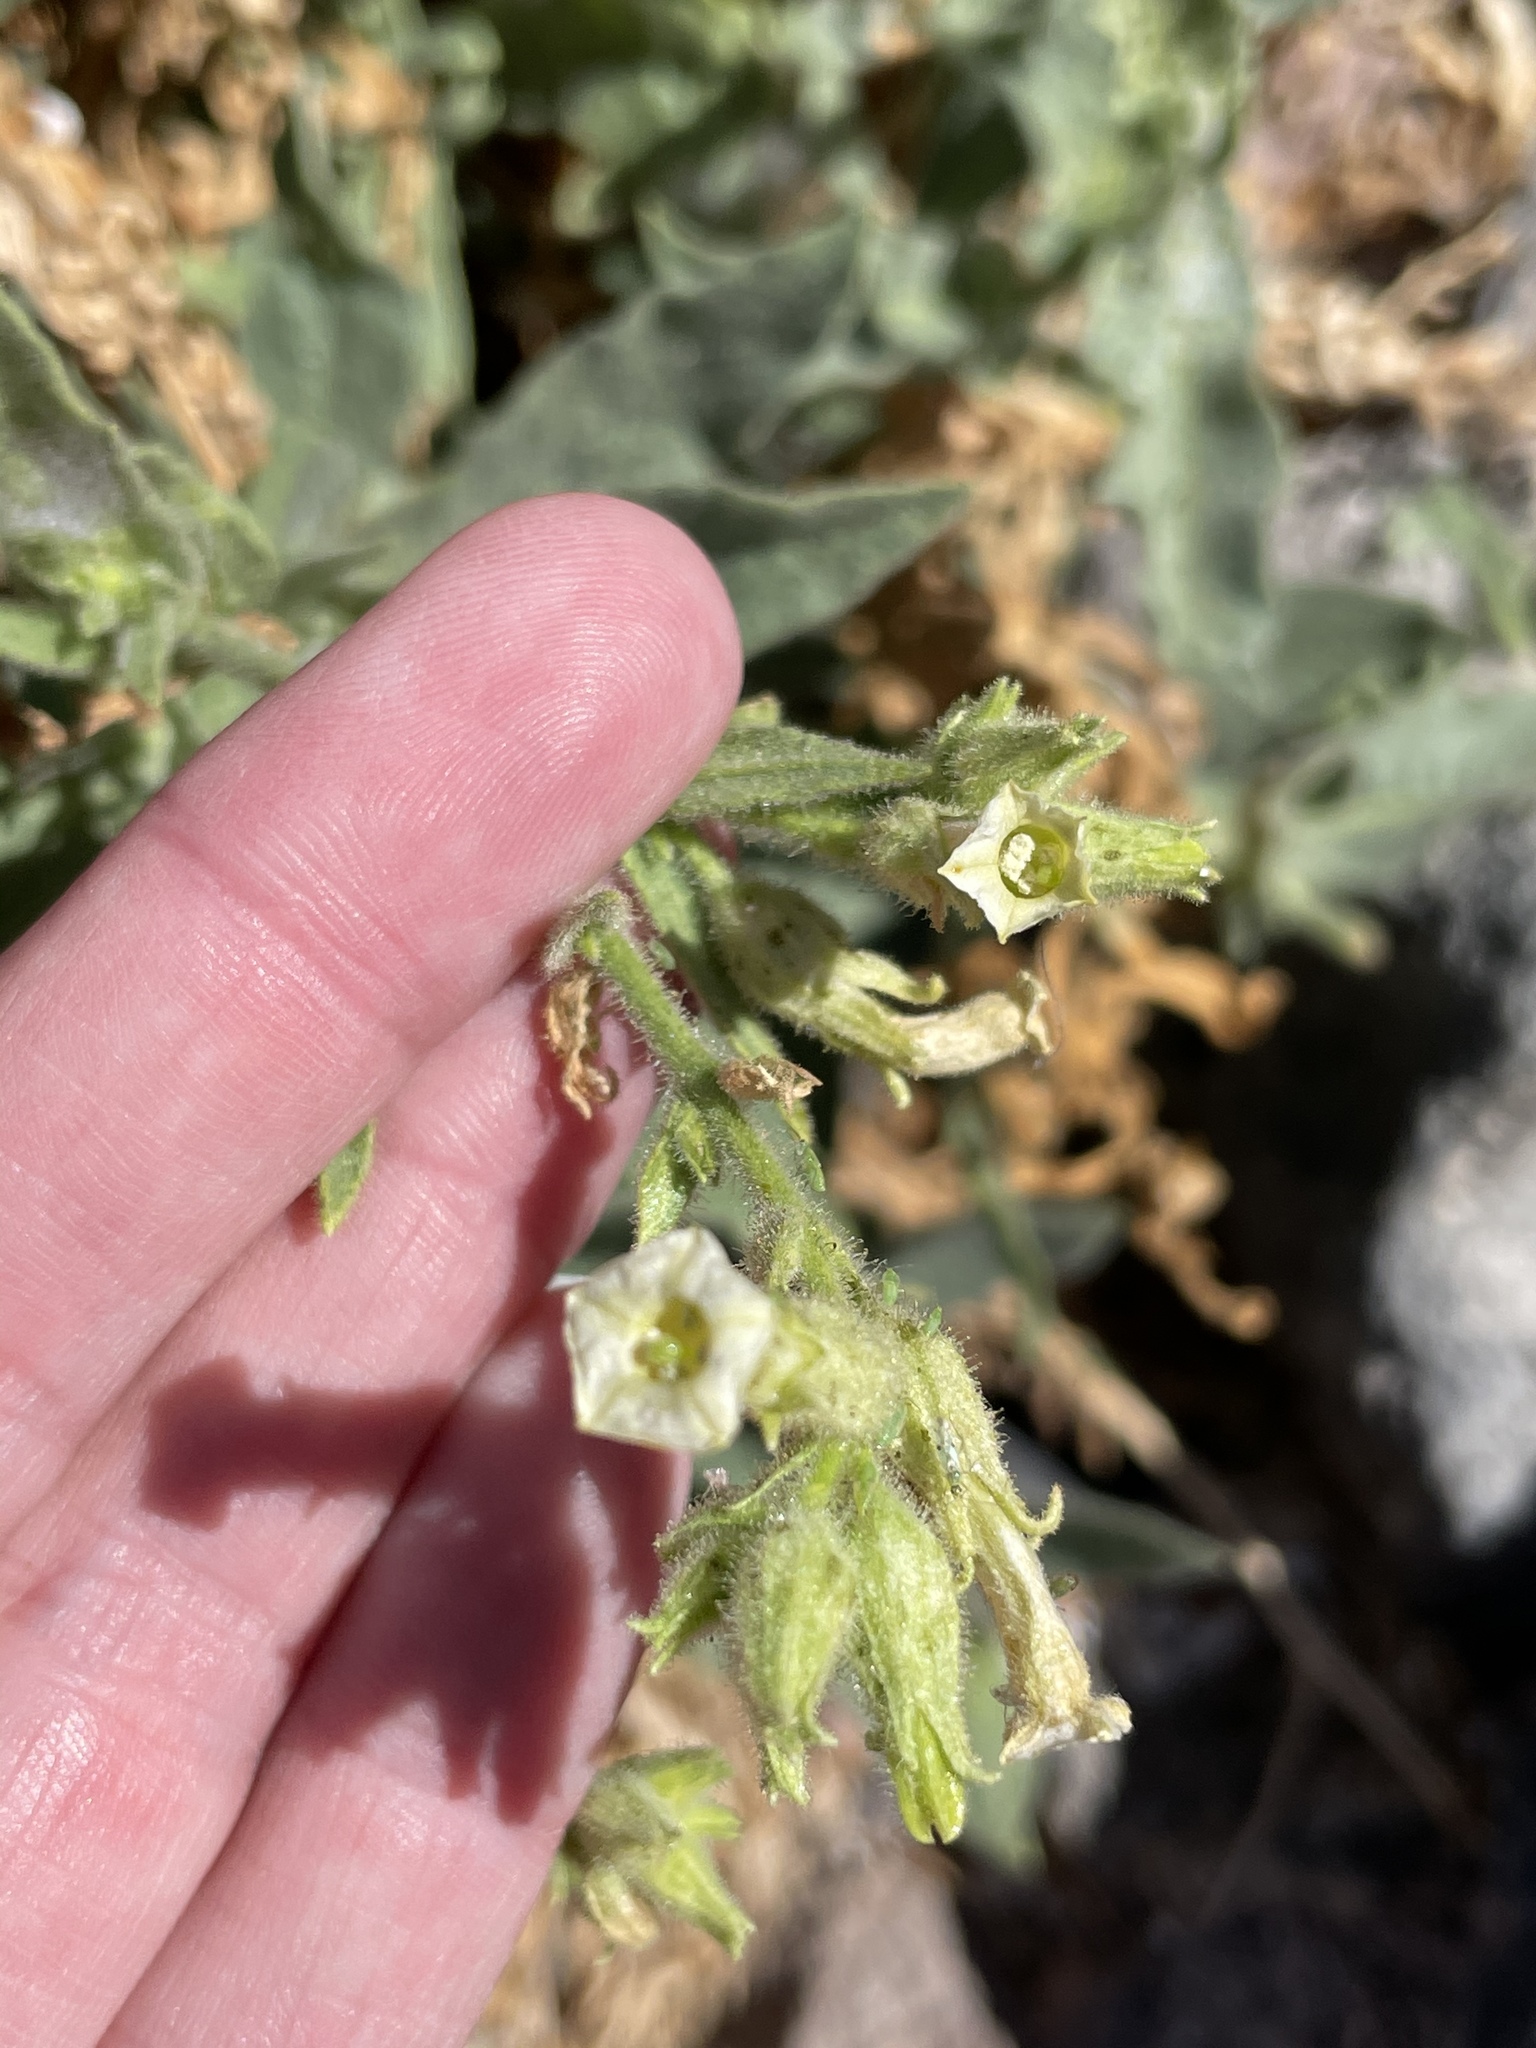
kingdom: Plantae
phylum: Tracheophyta
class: Magnoliopsida
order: Solanales
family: Solanaceae
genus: Nicotiana
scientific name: Nicotiana obtusifolia
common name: Desert tobacco
